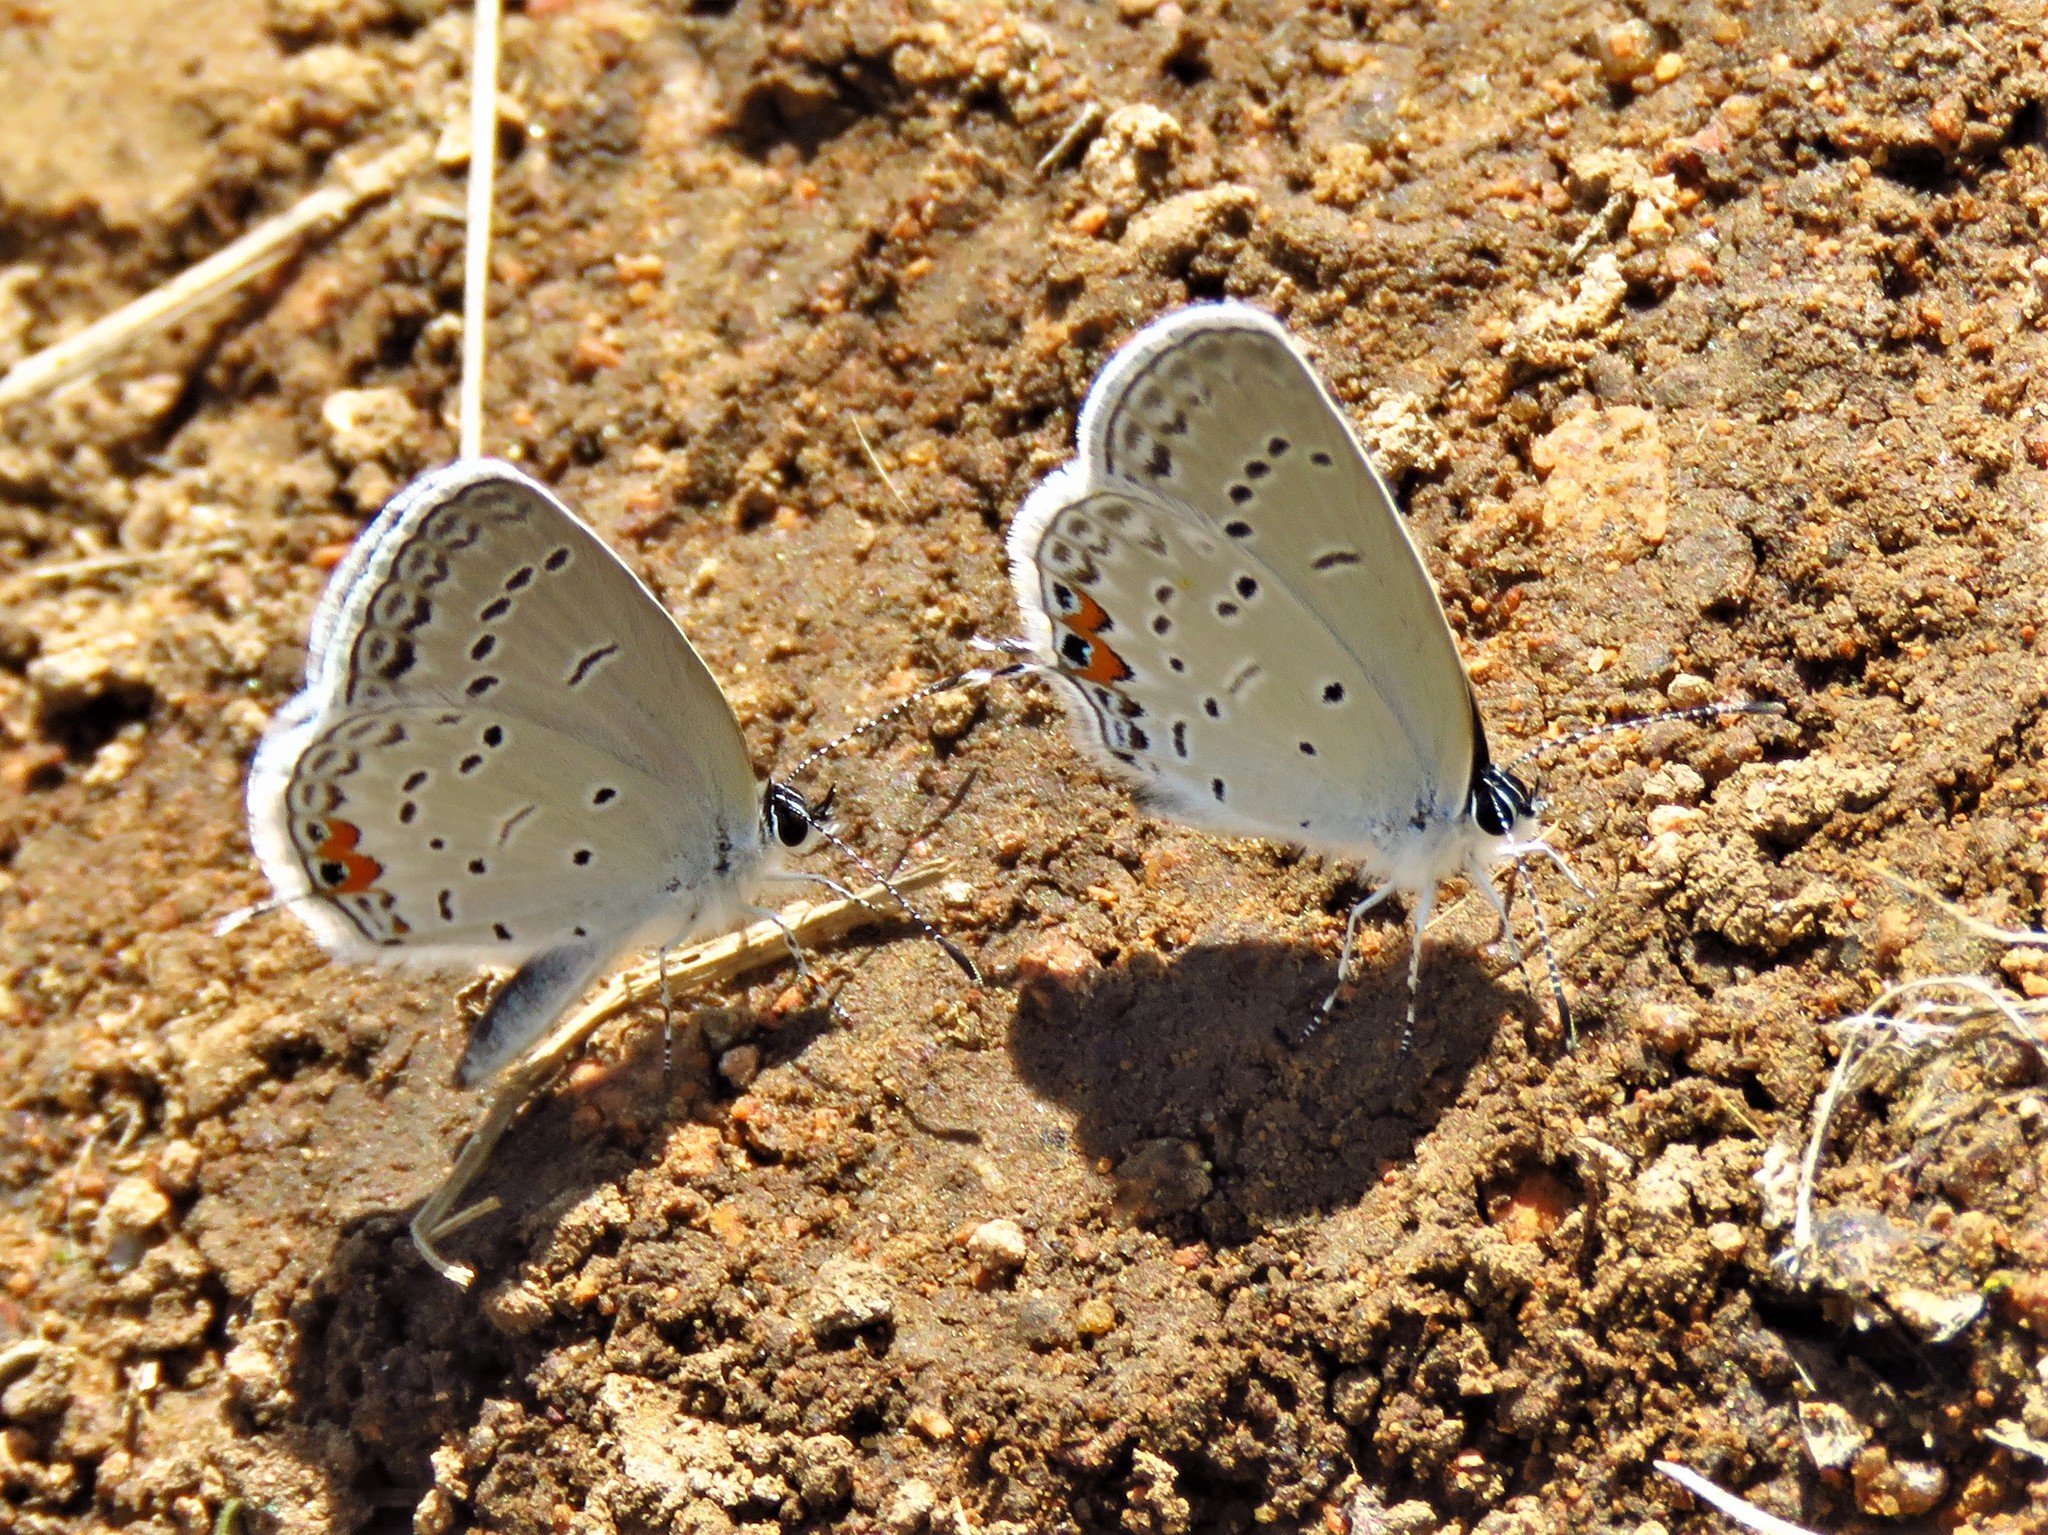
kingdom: Animalia
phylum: Arthropoda
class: Insecta
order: Lepidoptera
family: Lycaenidae
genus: Elkalyce
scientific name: Elkalyce comyntas
